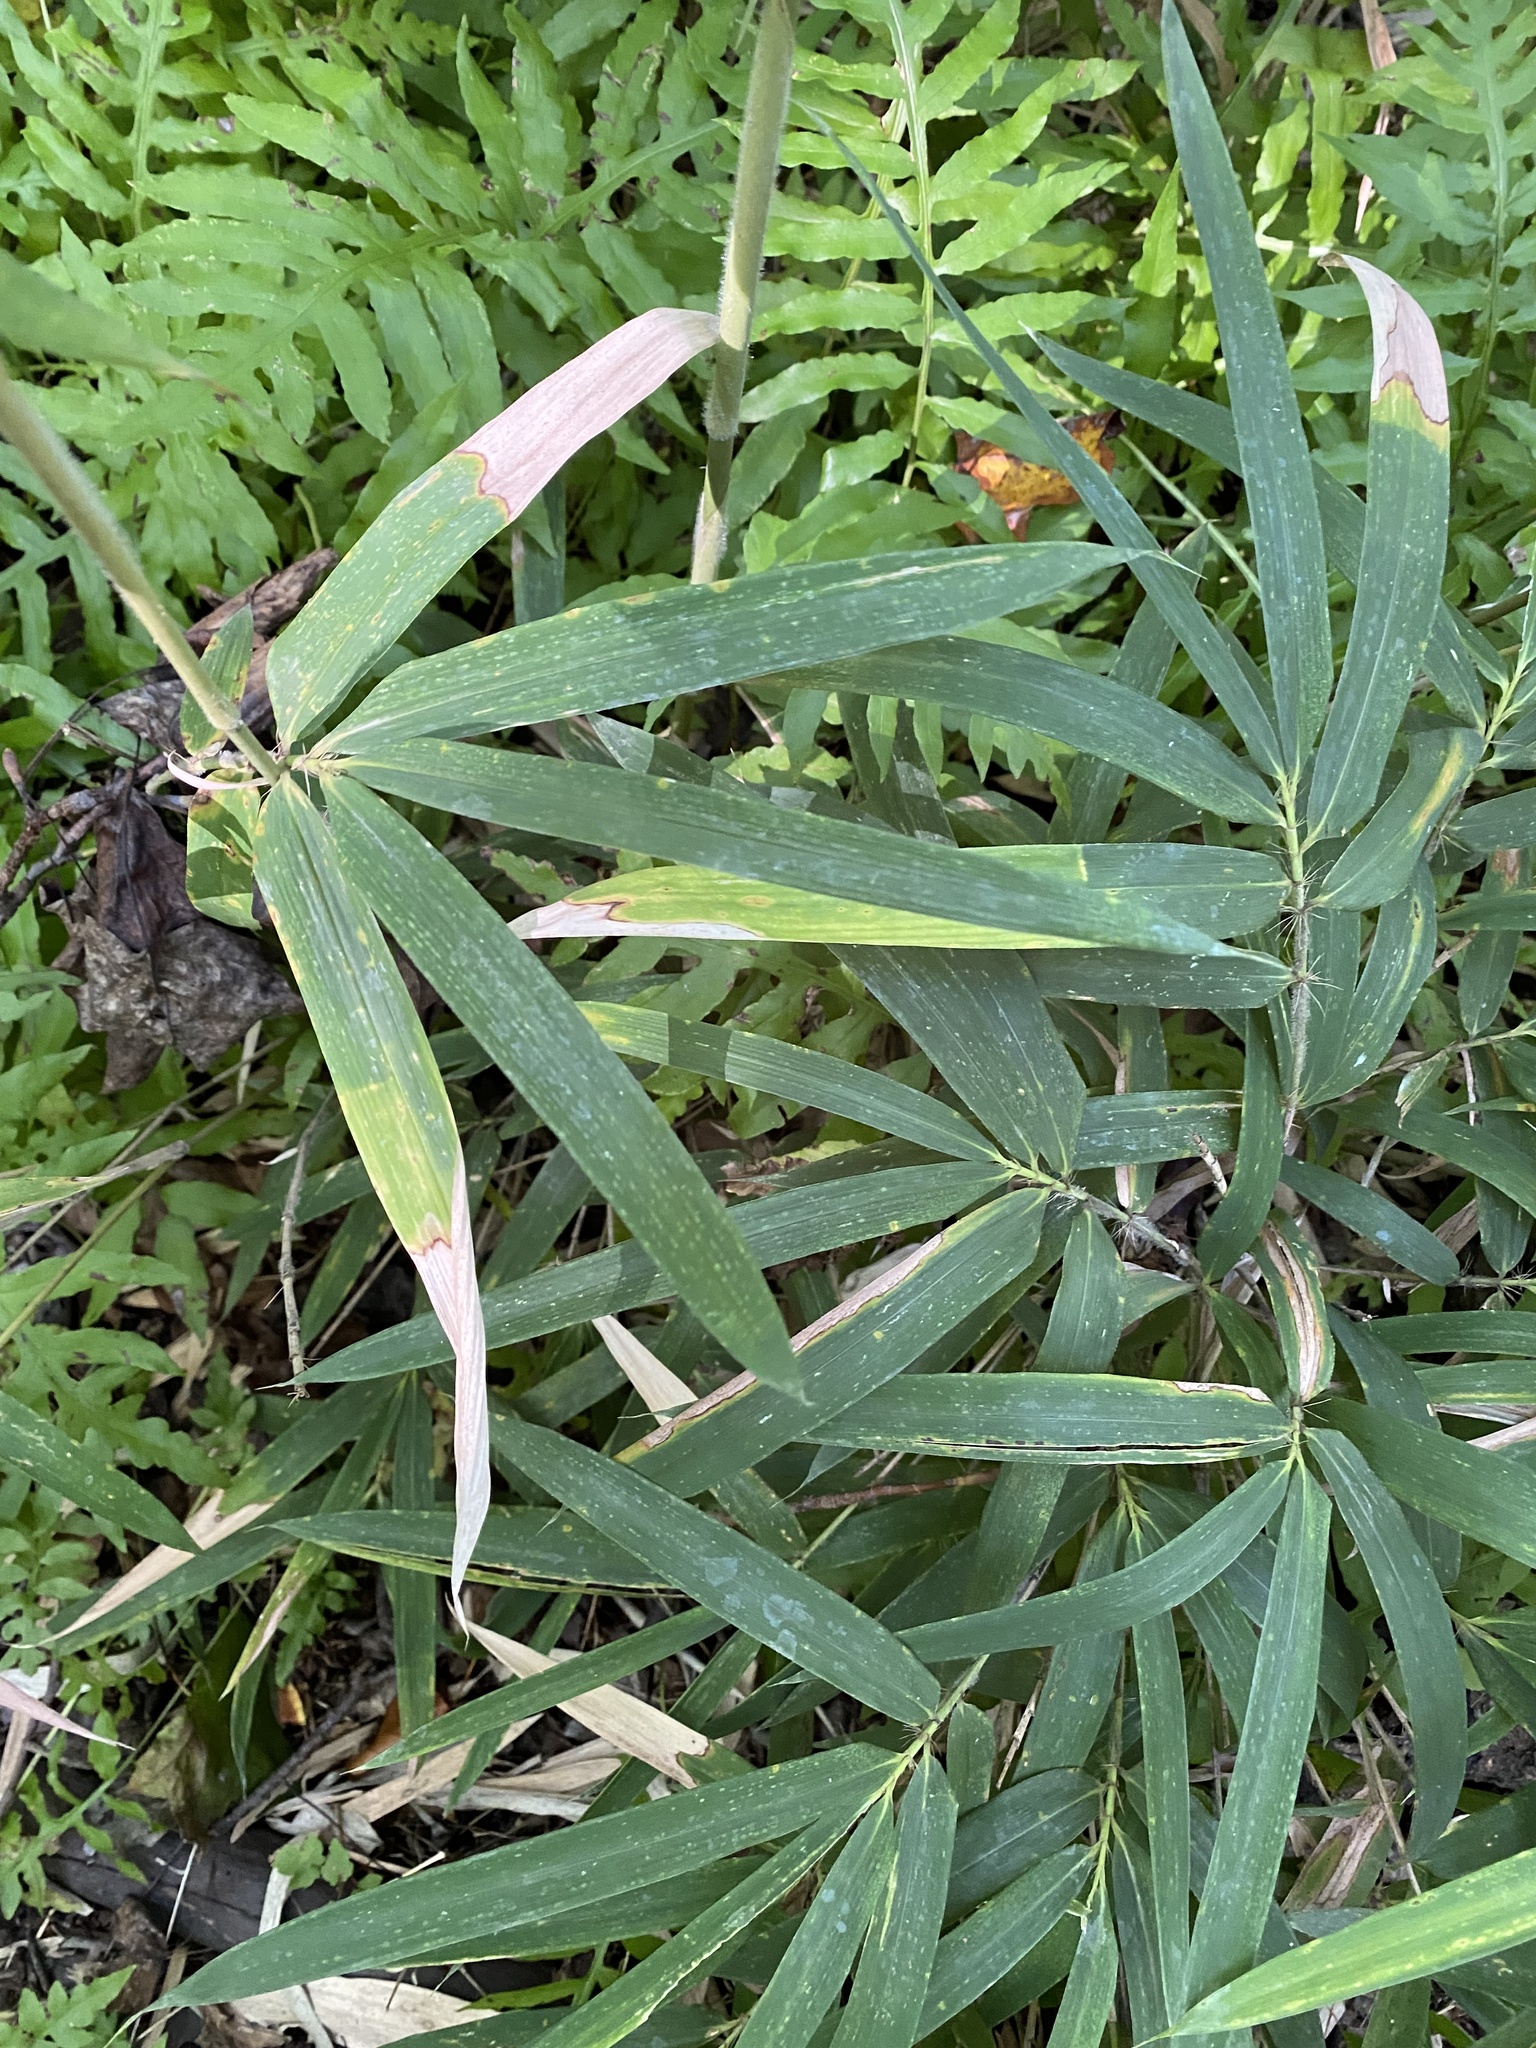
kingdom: Plantae
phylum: Tracheophyta
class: Liliopsida
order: Poales
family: Poaceae
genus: Arundinaria
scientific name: Arundinaria tecta
